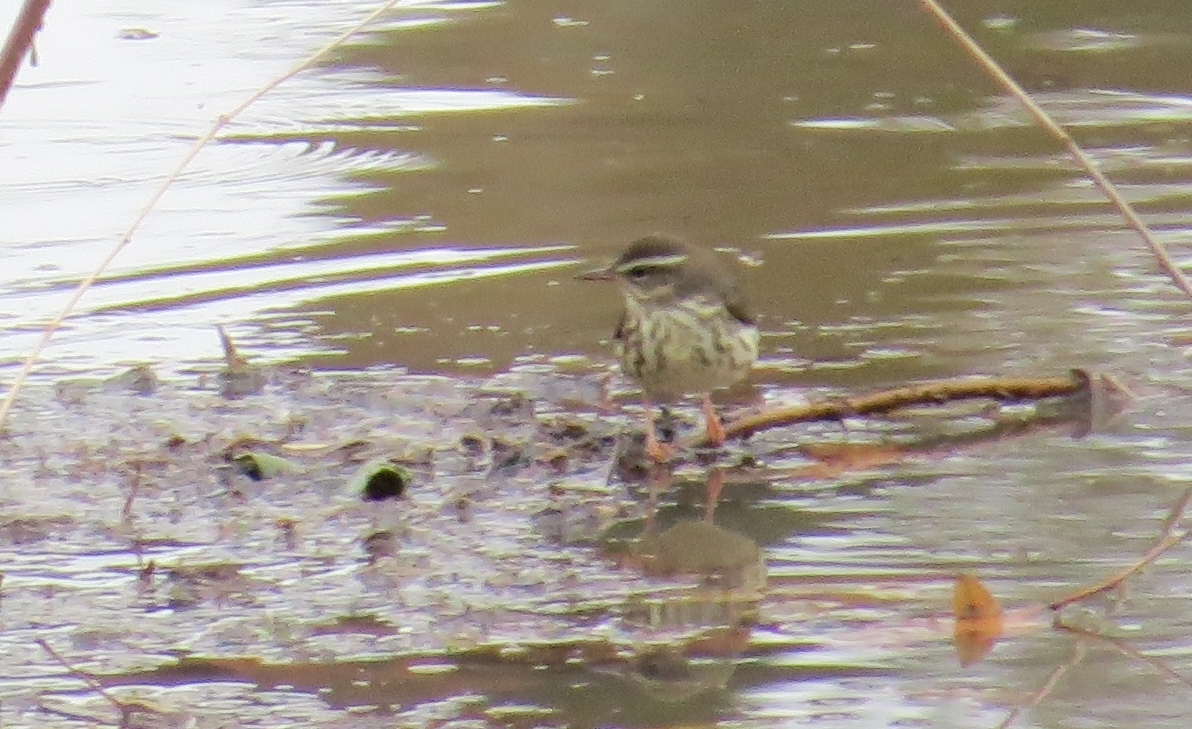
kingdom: Animalia
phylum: Chordata
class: Aves
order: Passeriformes
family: Parulidae
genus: Parkesia
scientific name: Parkesia motacilla
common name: Louisiana waterthrush
